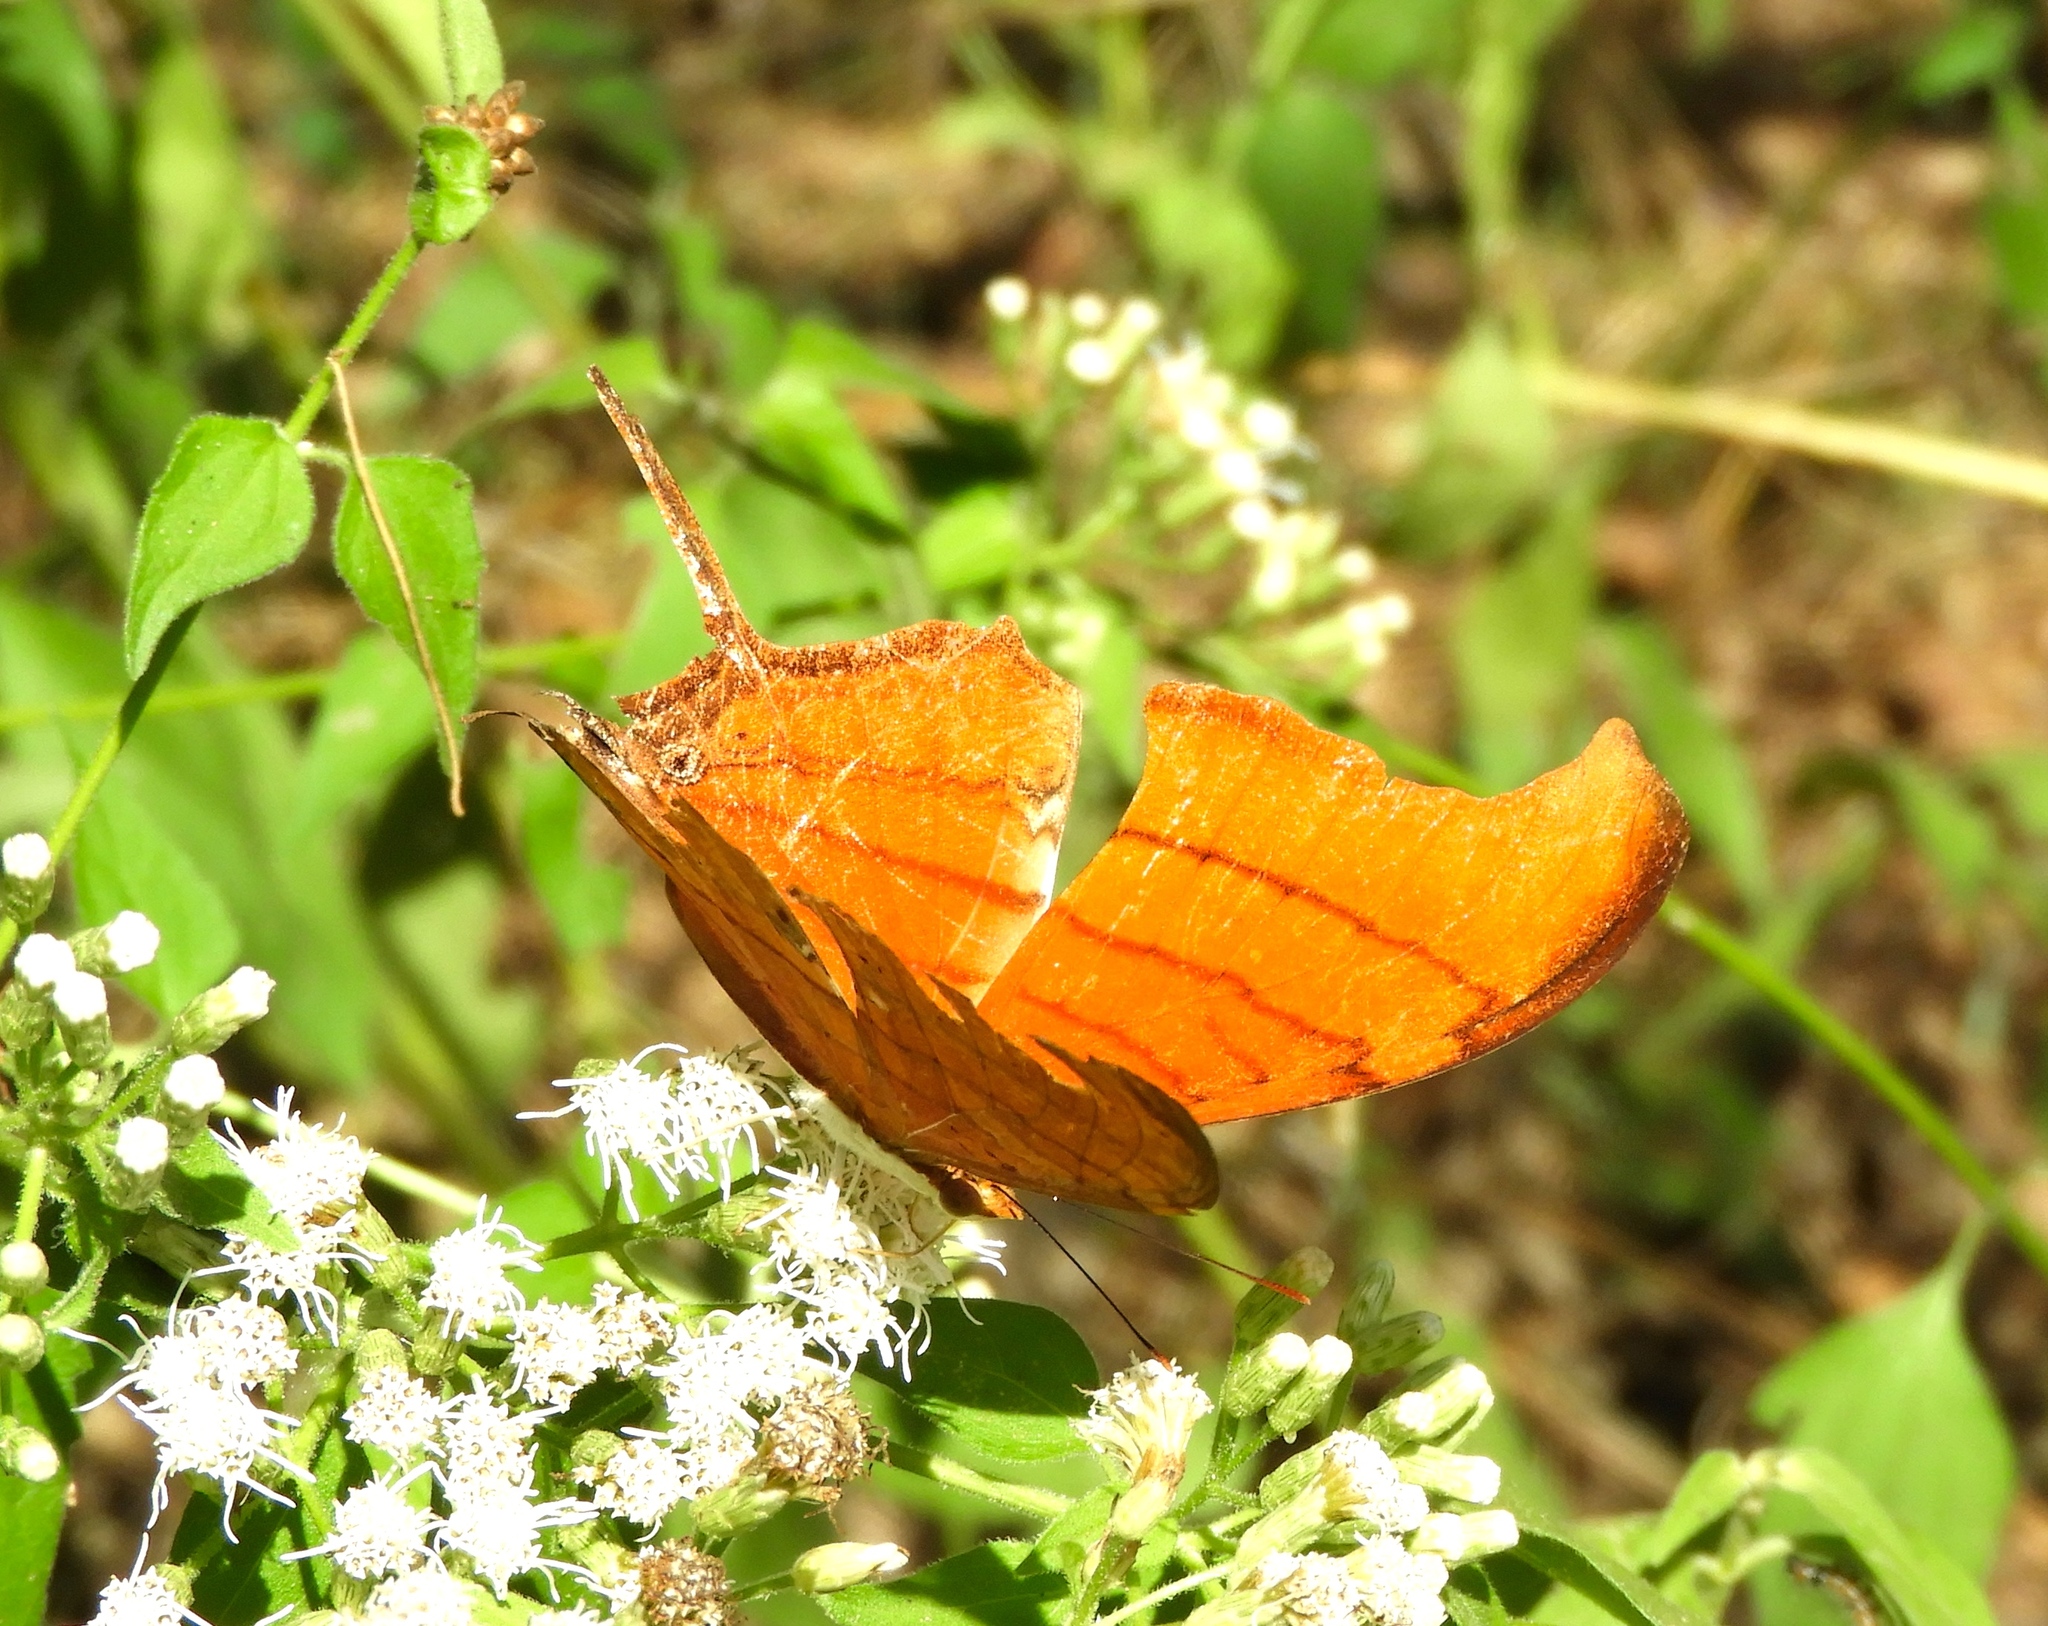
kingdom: Animalia
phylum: Arthropoda
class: Insecta
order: Lepidoptera
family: Nymphalidae
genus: Marpesia
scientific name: Marpesia petreus
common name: Red dagger wing
